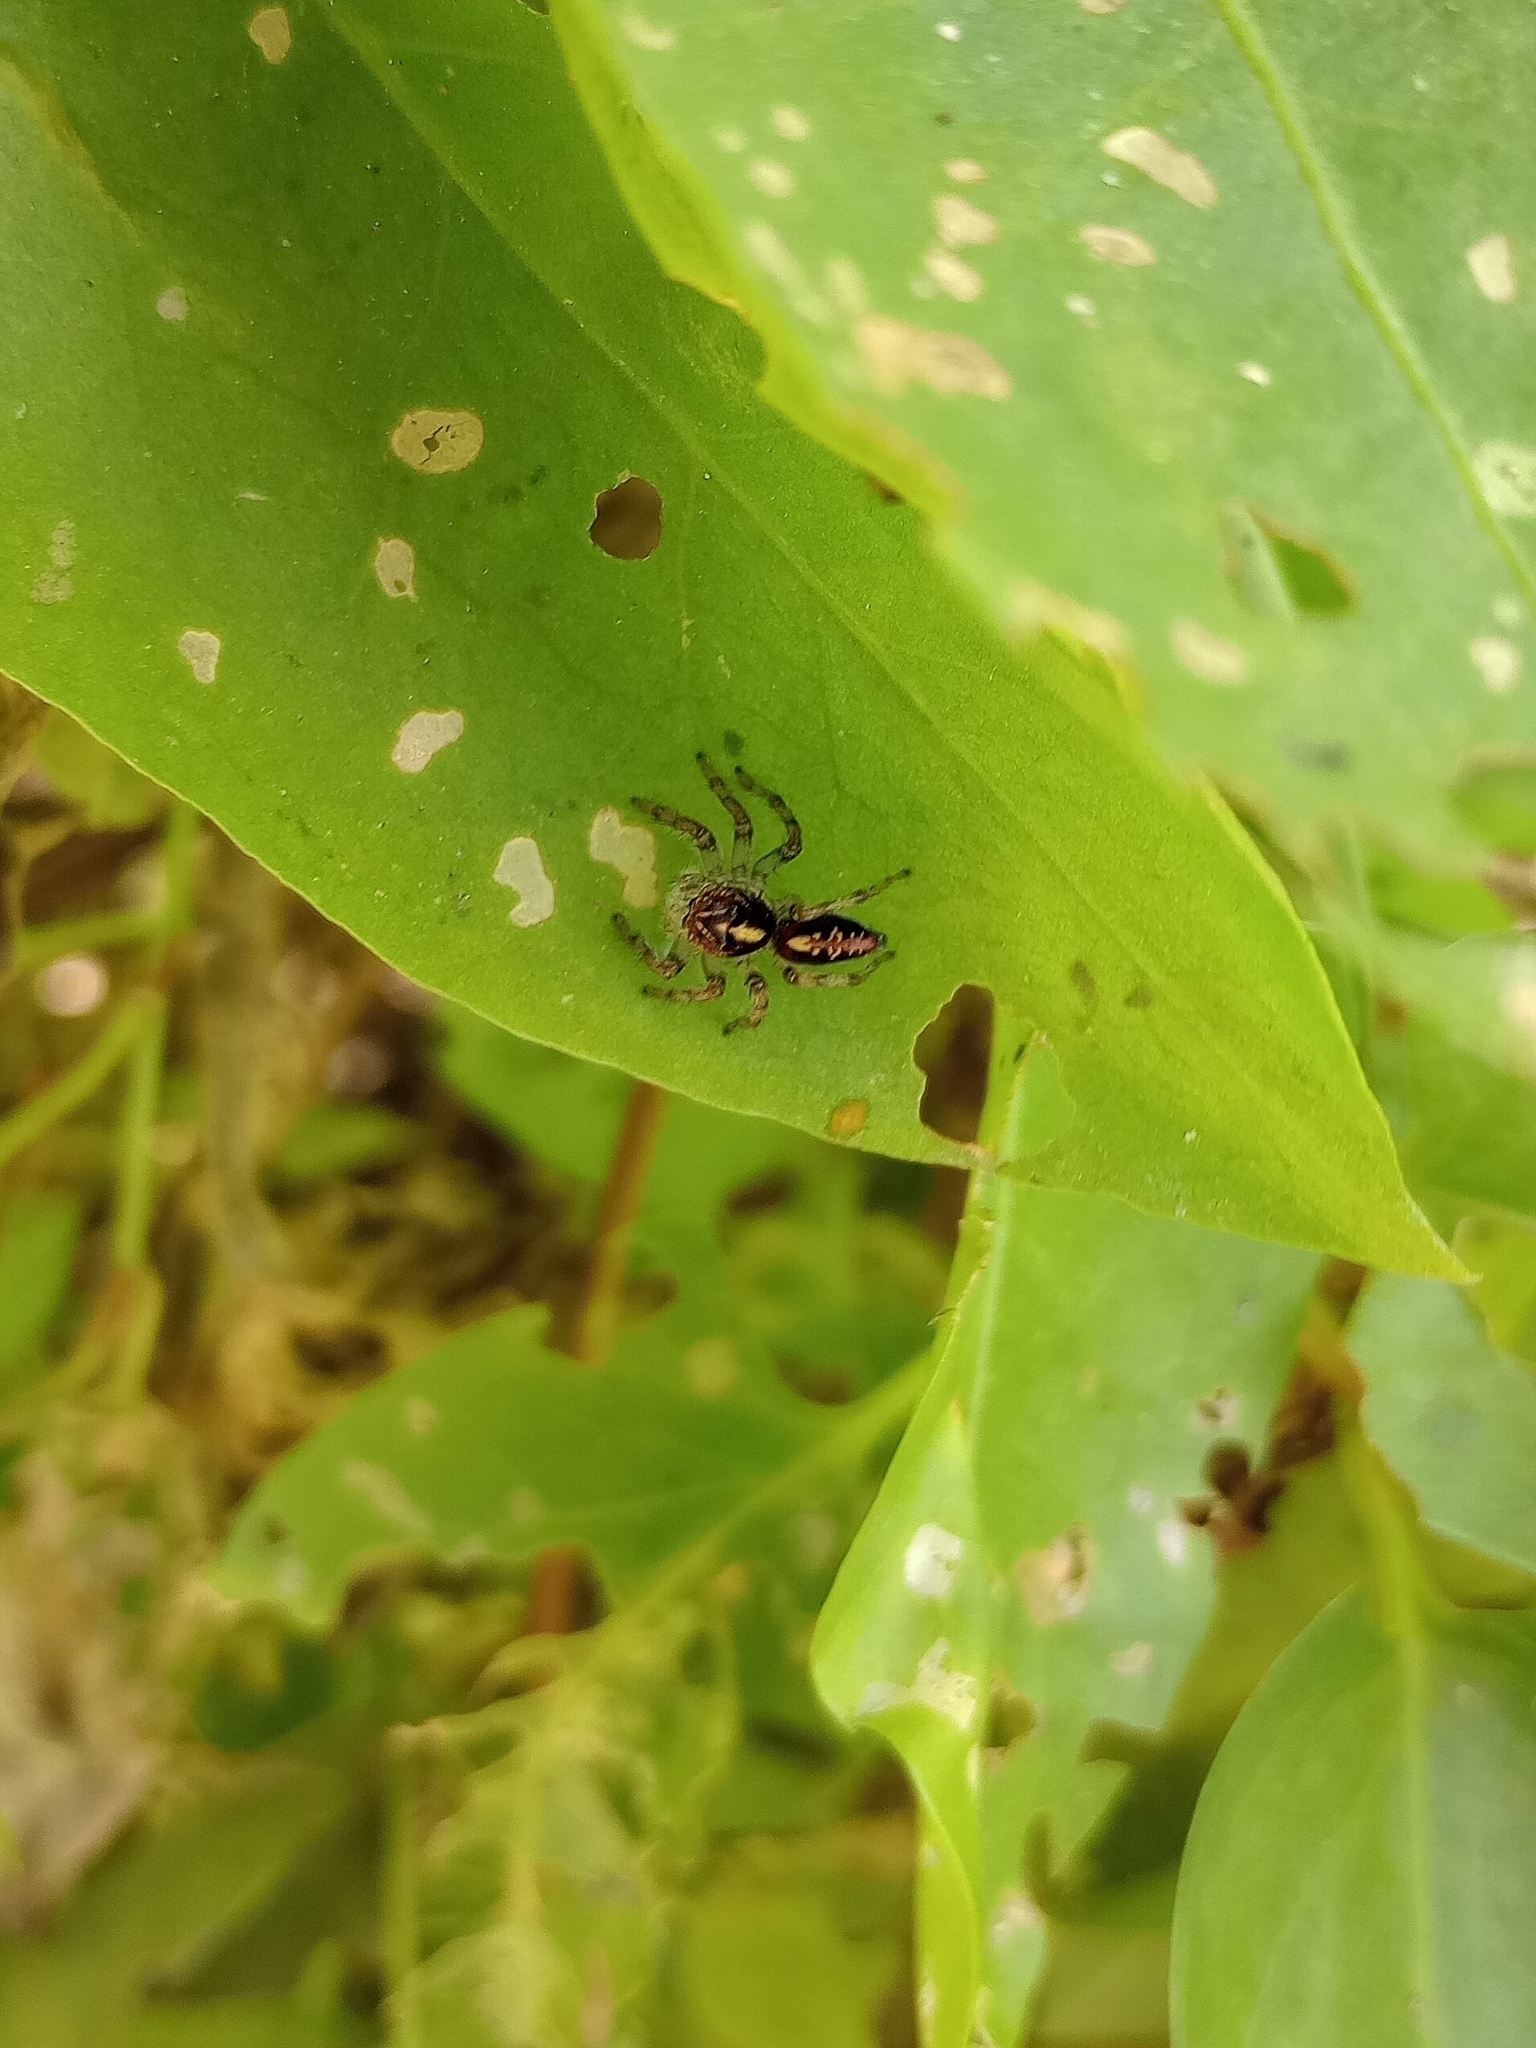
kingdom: Animalia
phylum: Arthropoda
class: Arachnida
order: Araneae
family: Salticidae
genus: Frigga
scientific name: Frigga quintensis
